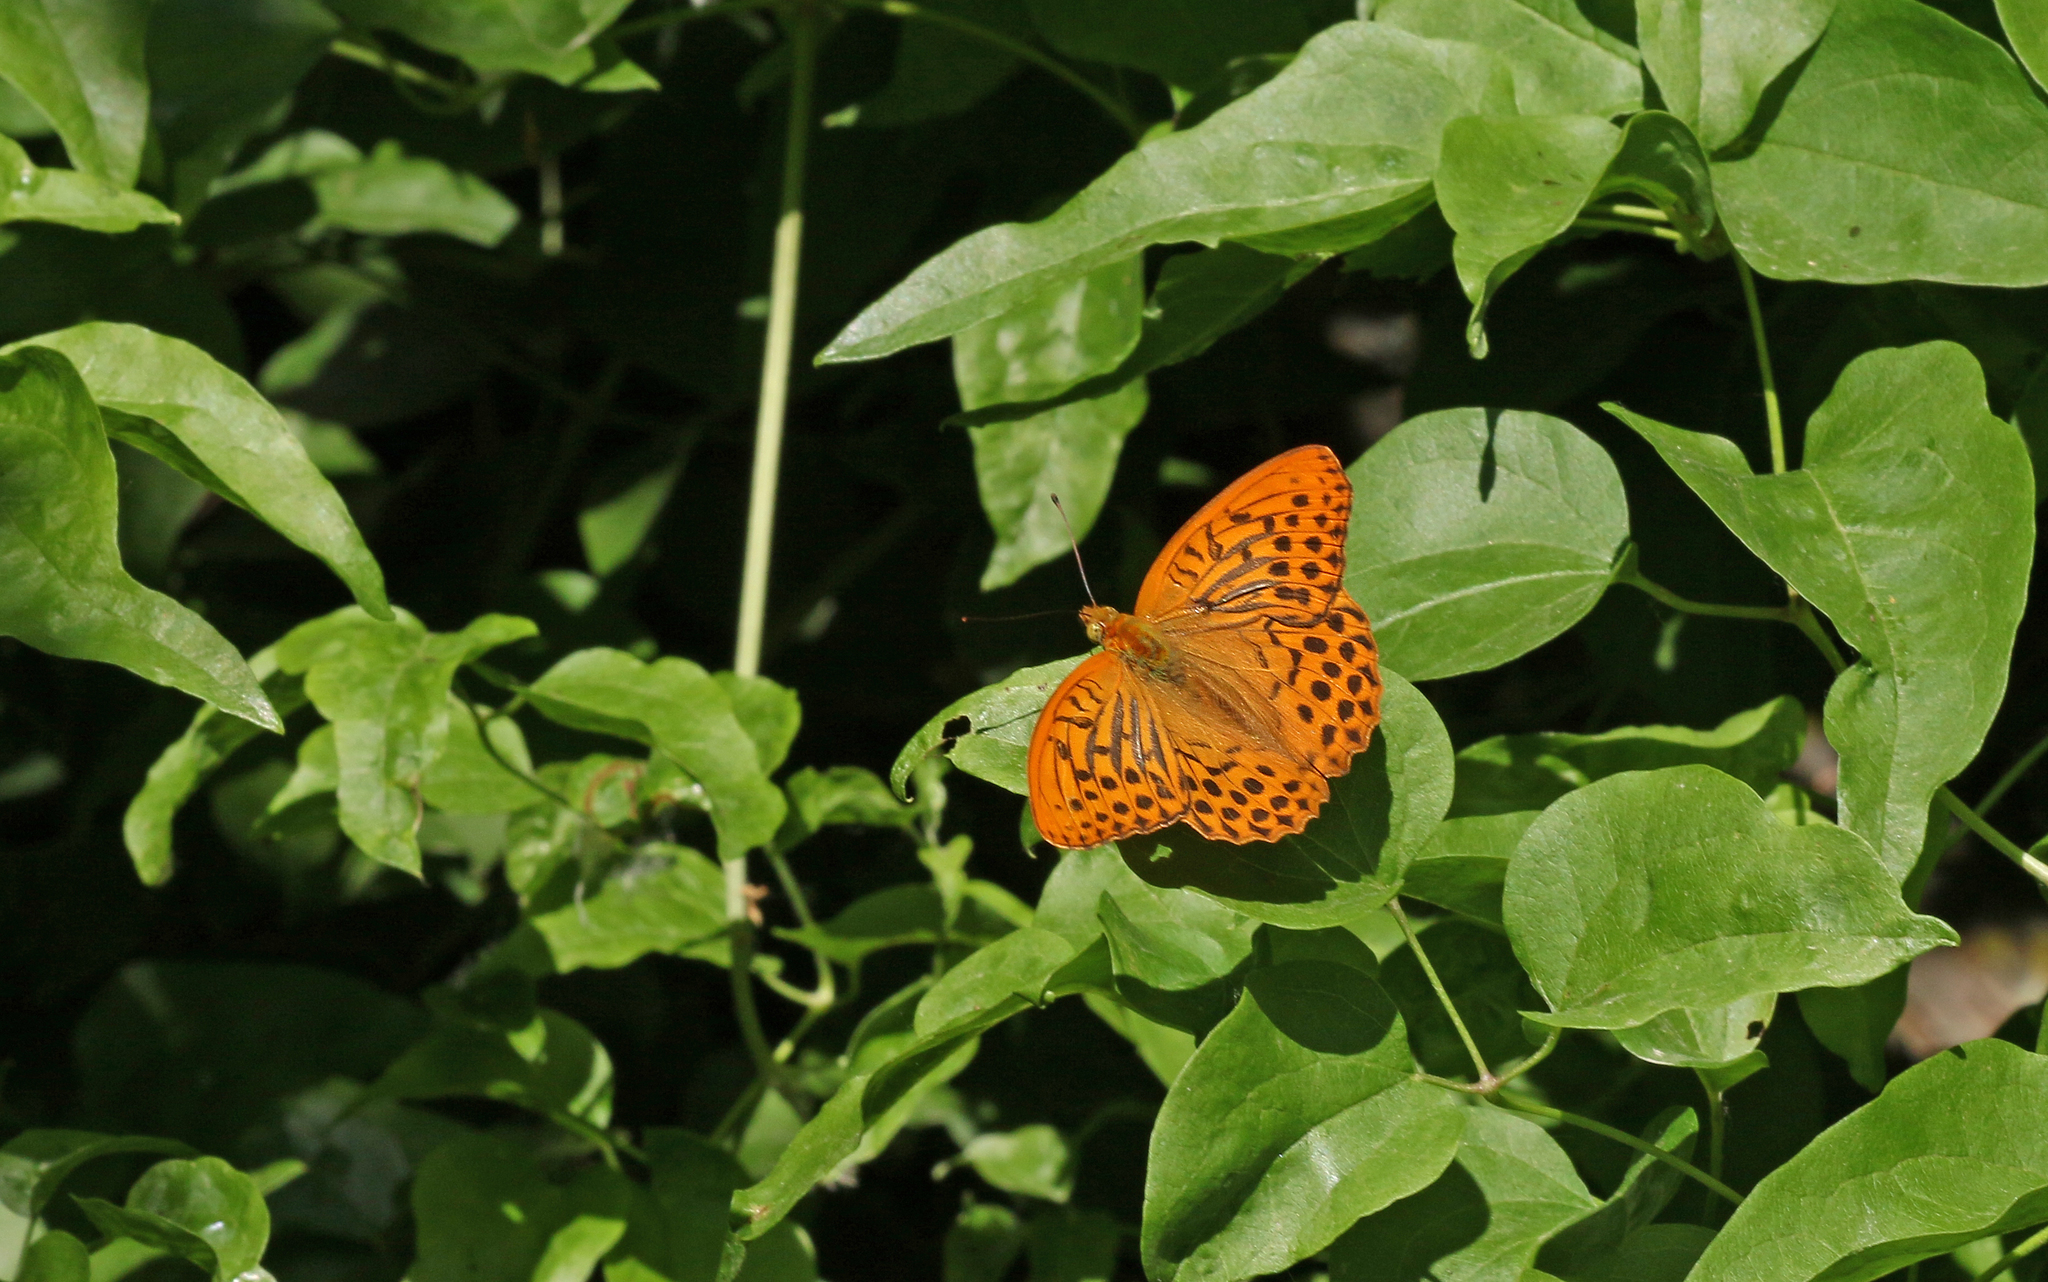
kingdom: Animalia
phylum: Arthropoda
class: Insecta
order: Lepidoptera
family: Nymphalidae
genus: Argynnis
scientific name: Argynnis paphia
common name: Silver-washed fritillary
